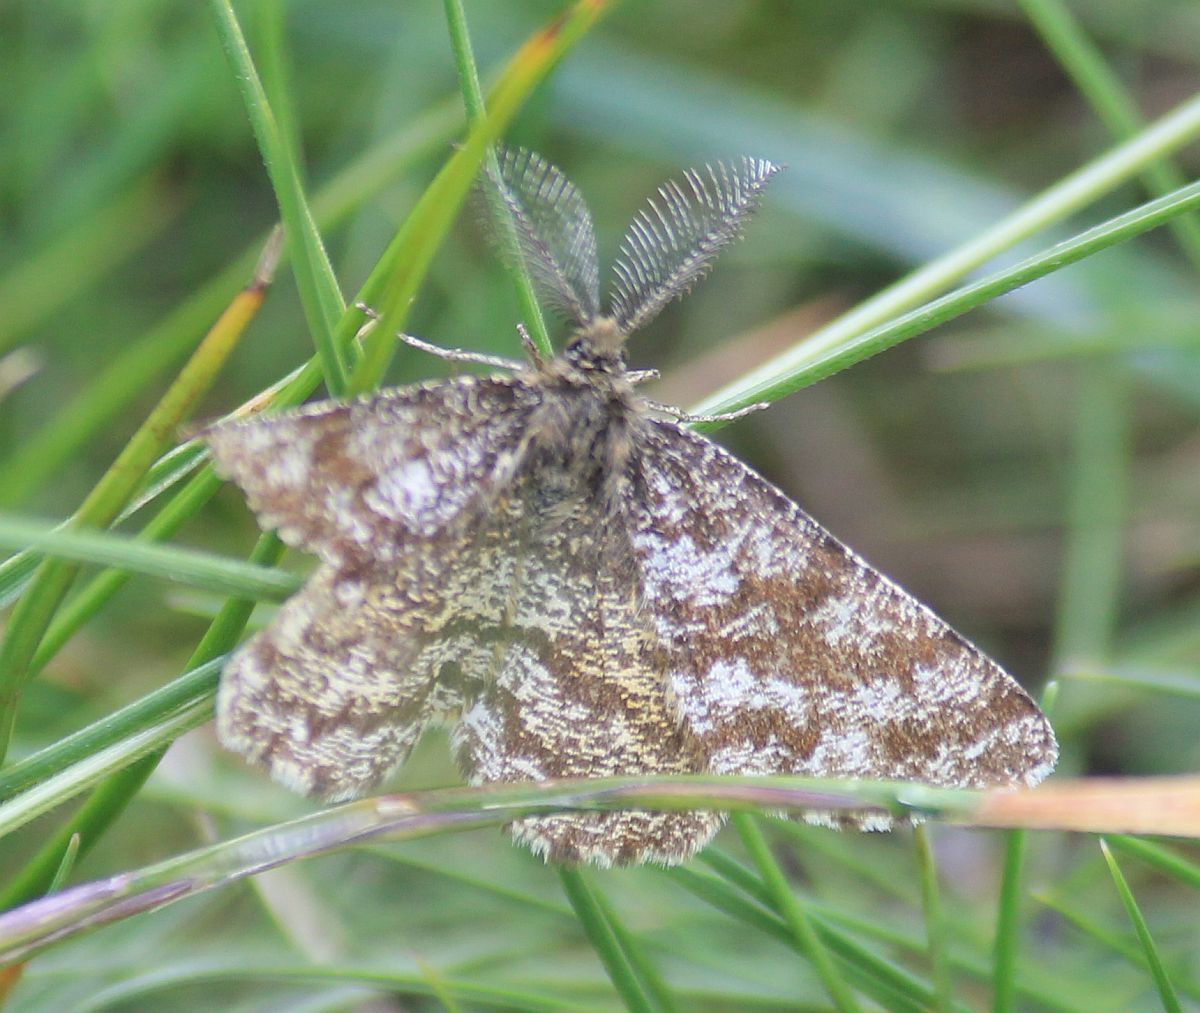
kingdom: Animalia
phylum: Arthropoda
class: Insecta
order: Lepidoptera
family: Geometridae
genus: Ematurga
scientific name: Ematurga atomaria
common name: Common heath
